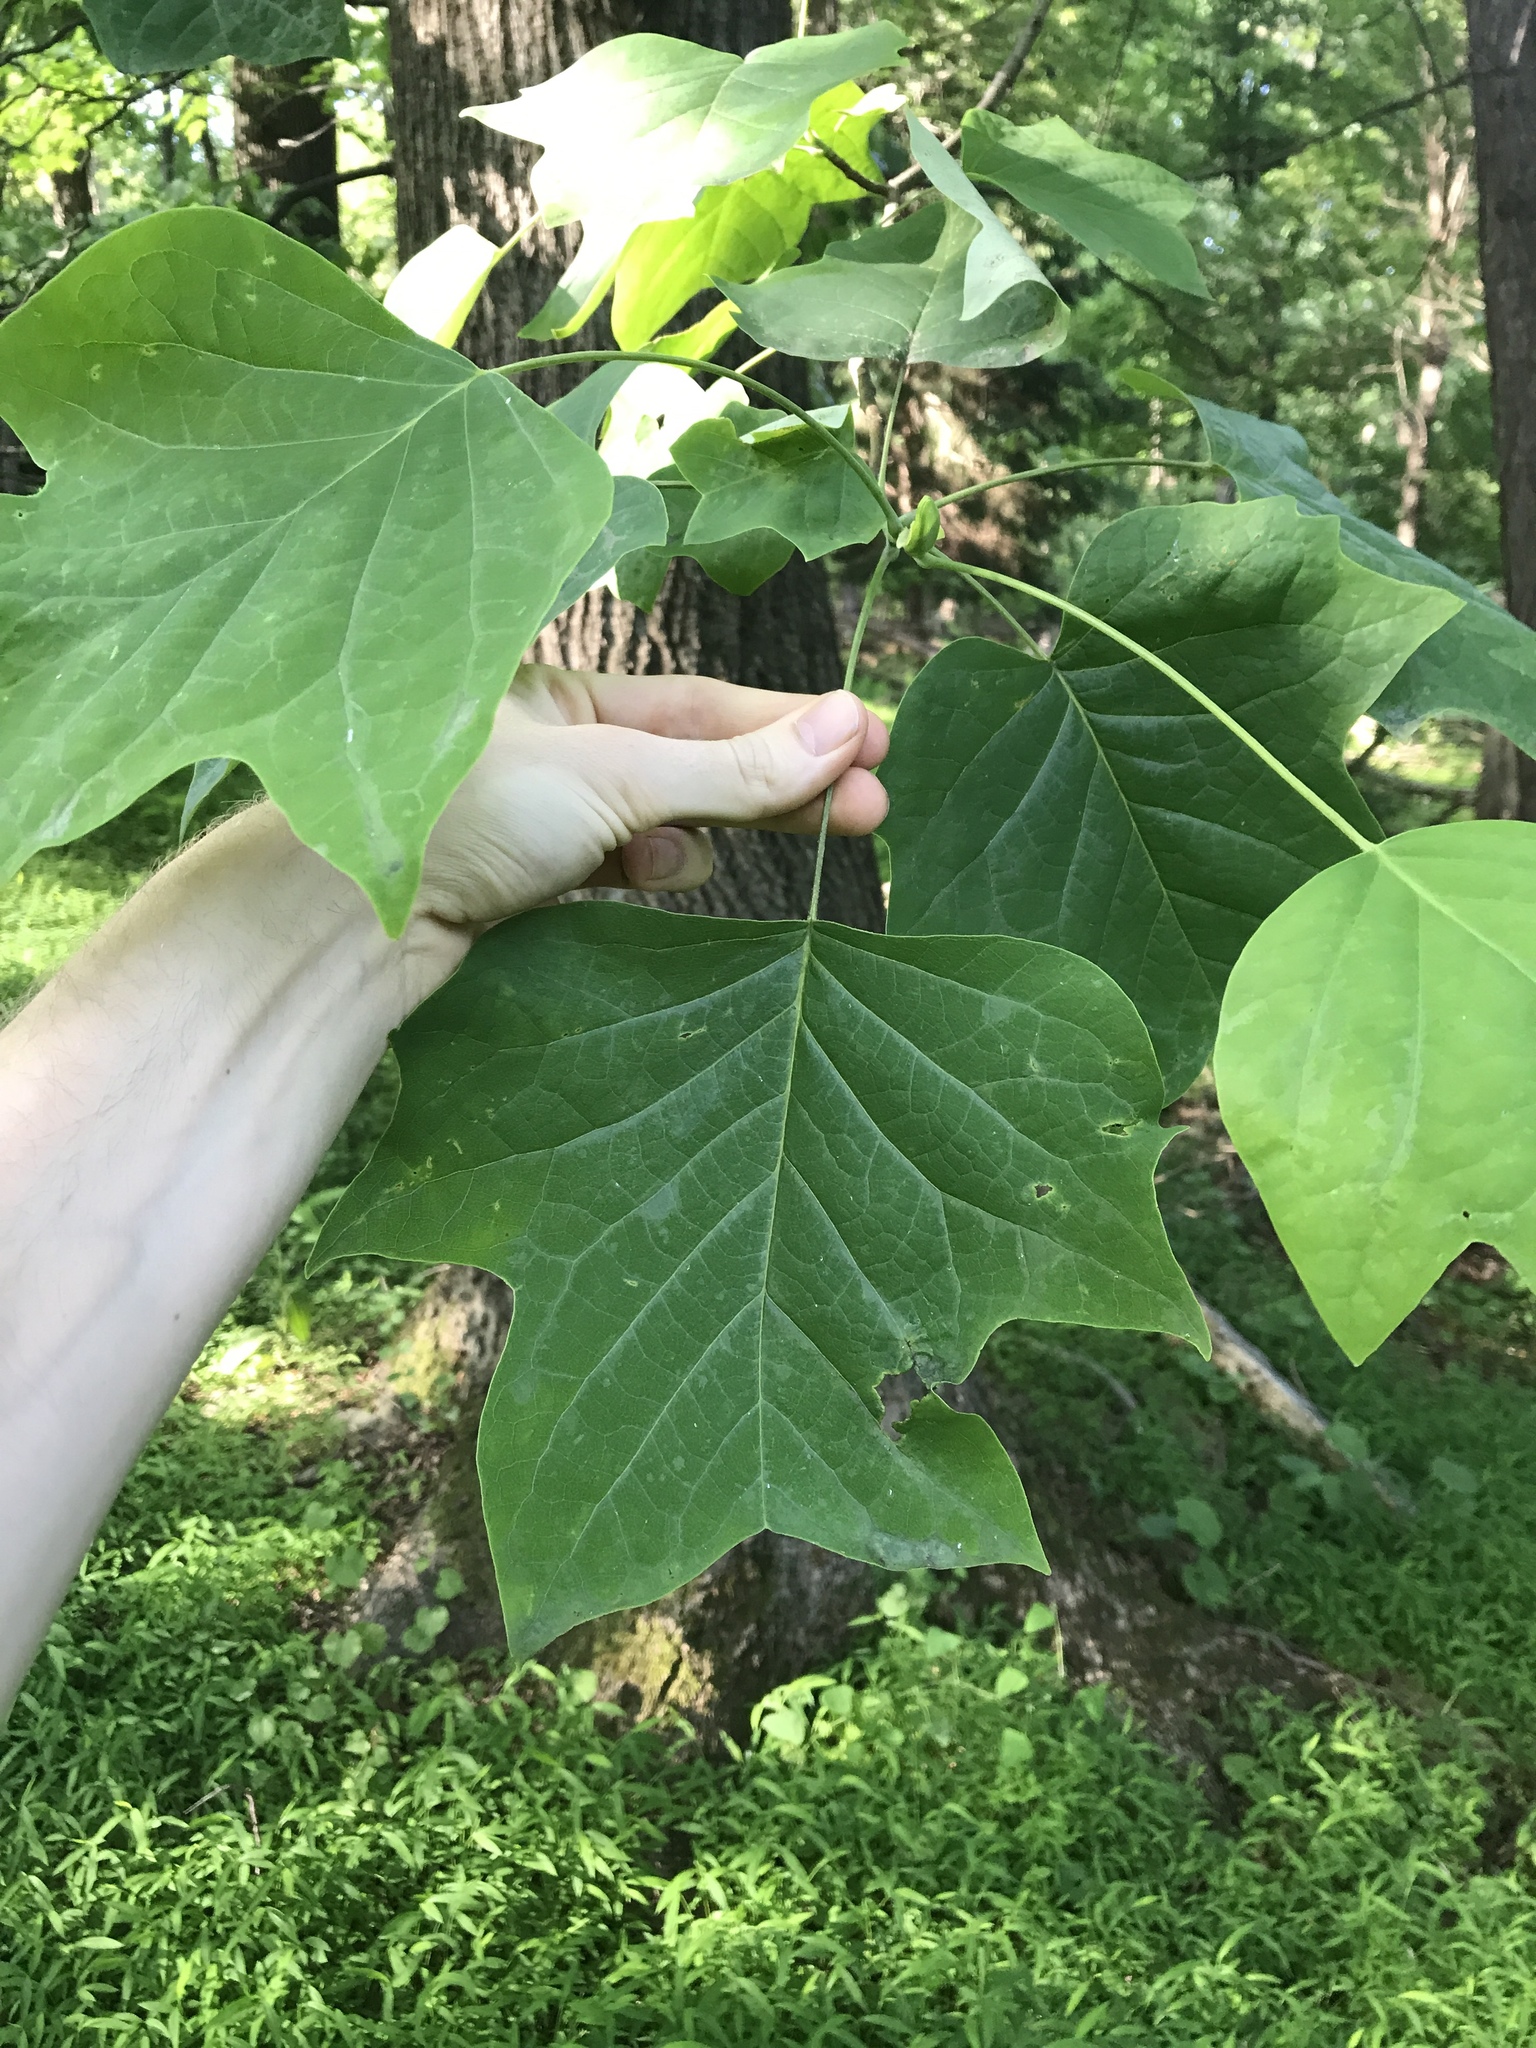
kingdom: Plantae
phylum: Tracheophyta
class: Magnoliopsida
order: Magnoliales
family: Magnoliaceae
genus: Liriodendron
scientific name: Liriodendron tulipifera
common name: Tulip tree
